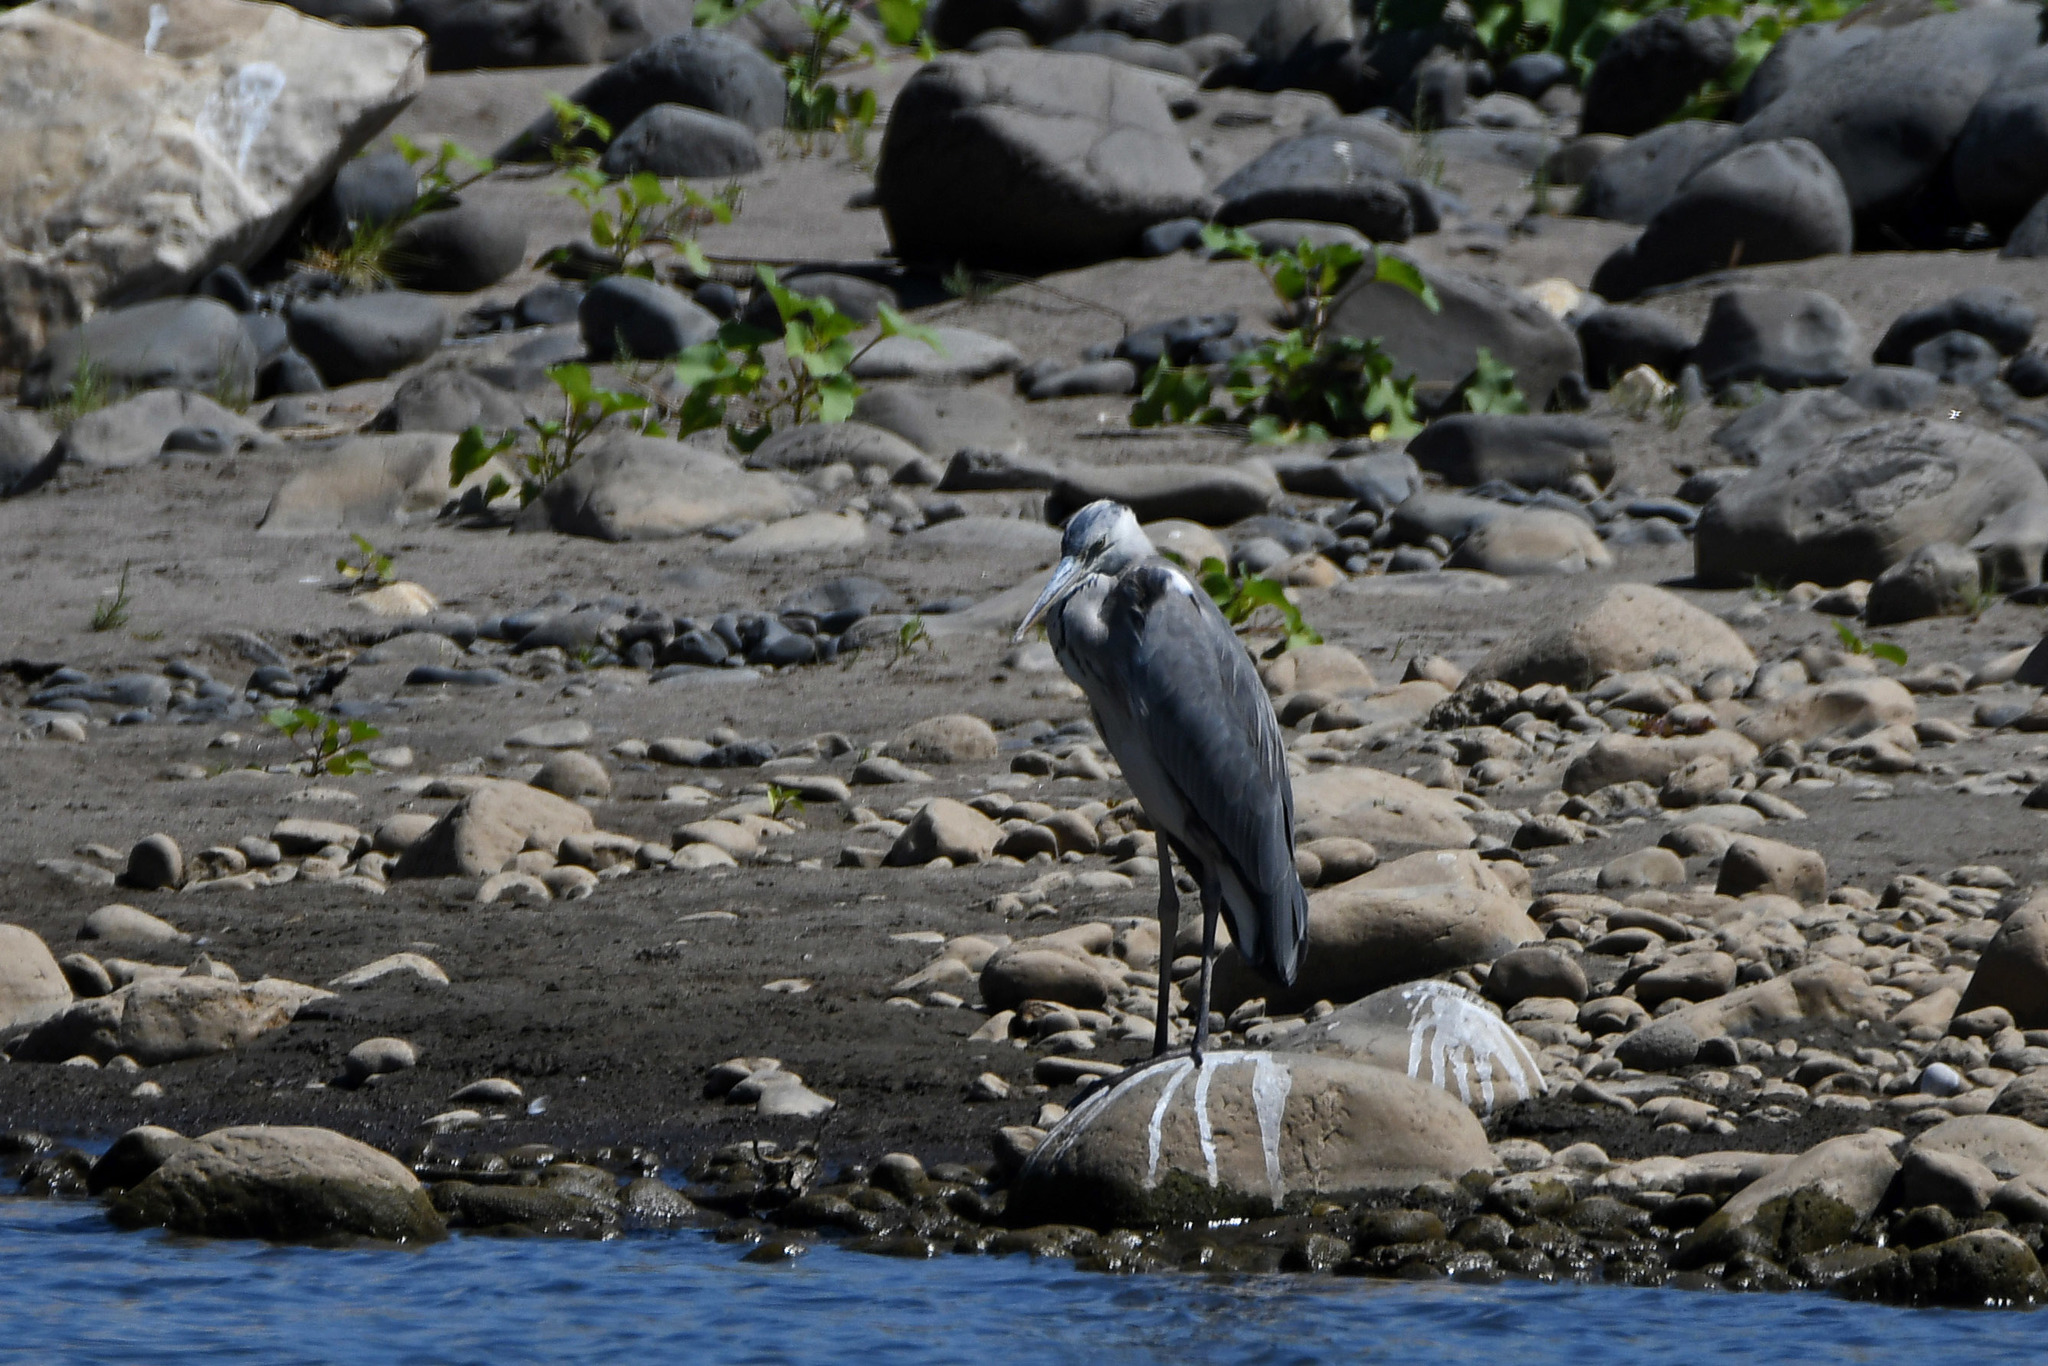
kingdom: Animalia
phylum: Chordata
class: Aves
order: Pelecaniformes
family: Ardeidae
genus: Ardea
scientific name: Ardea cinerea
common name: Grey heron
